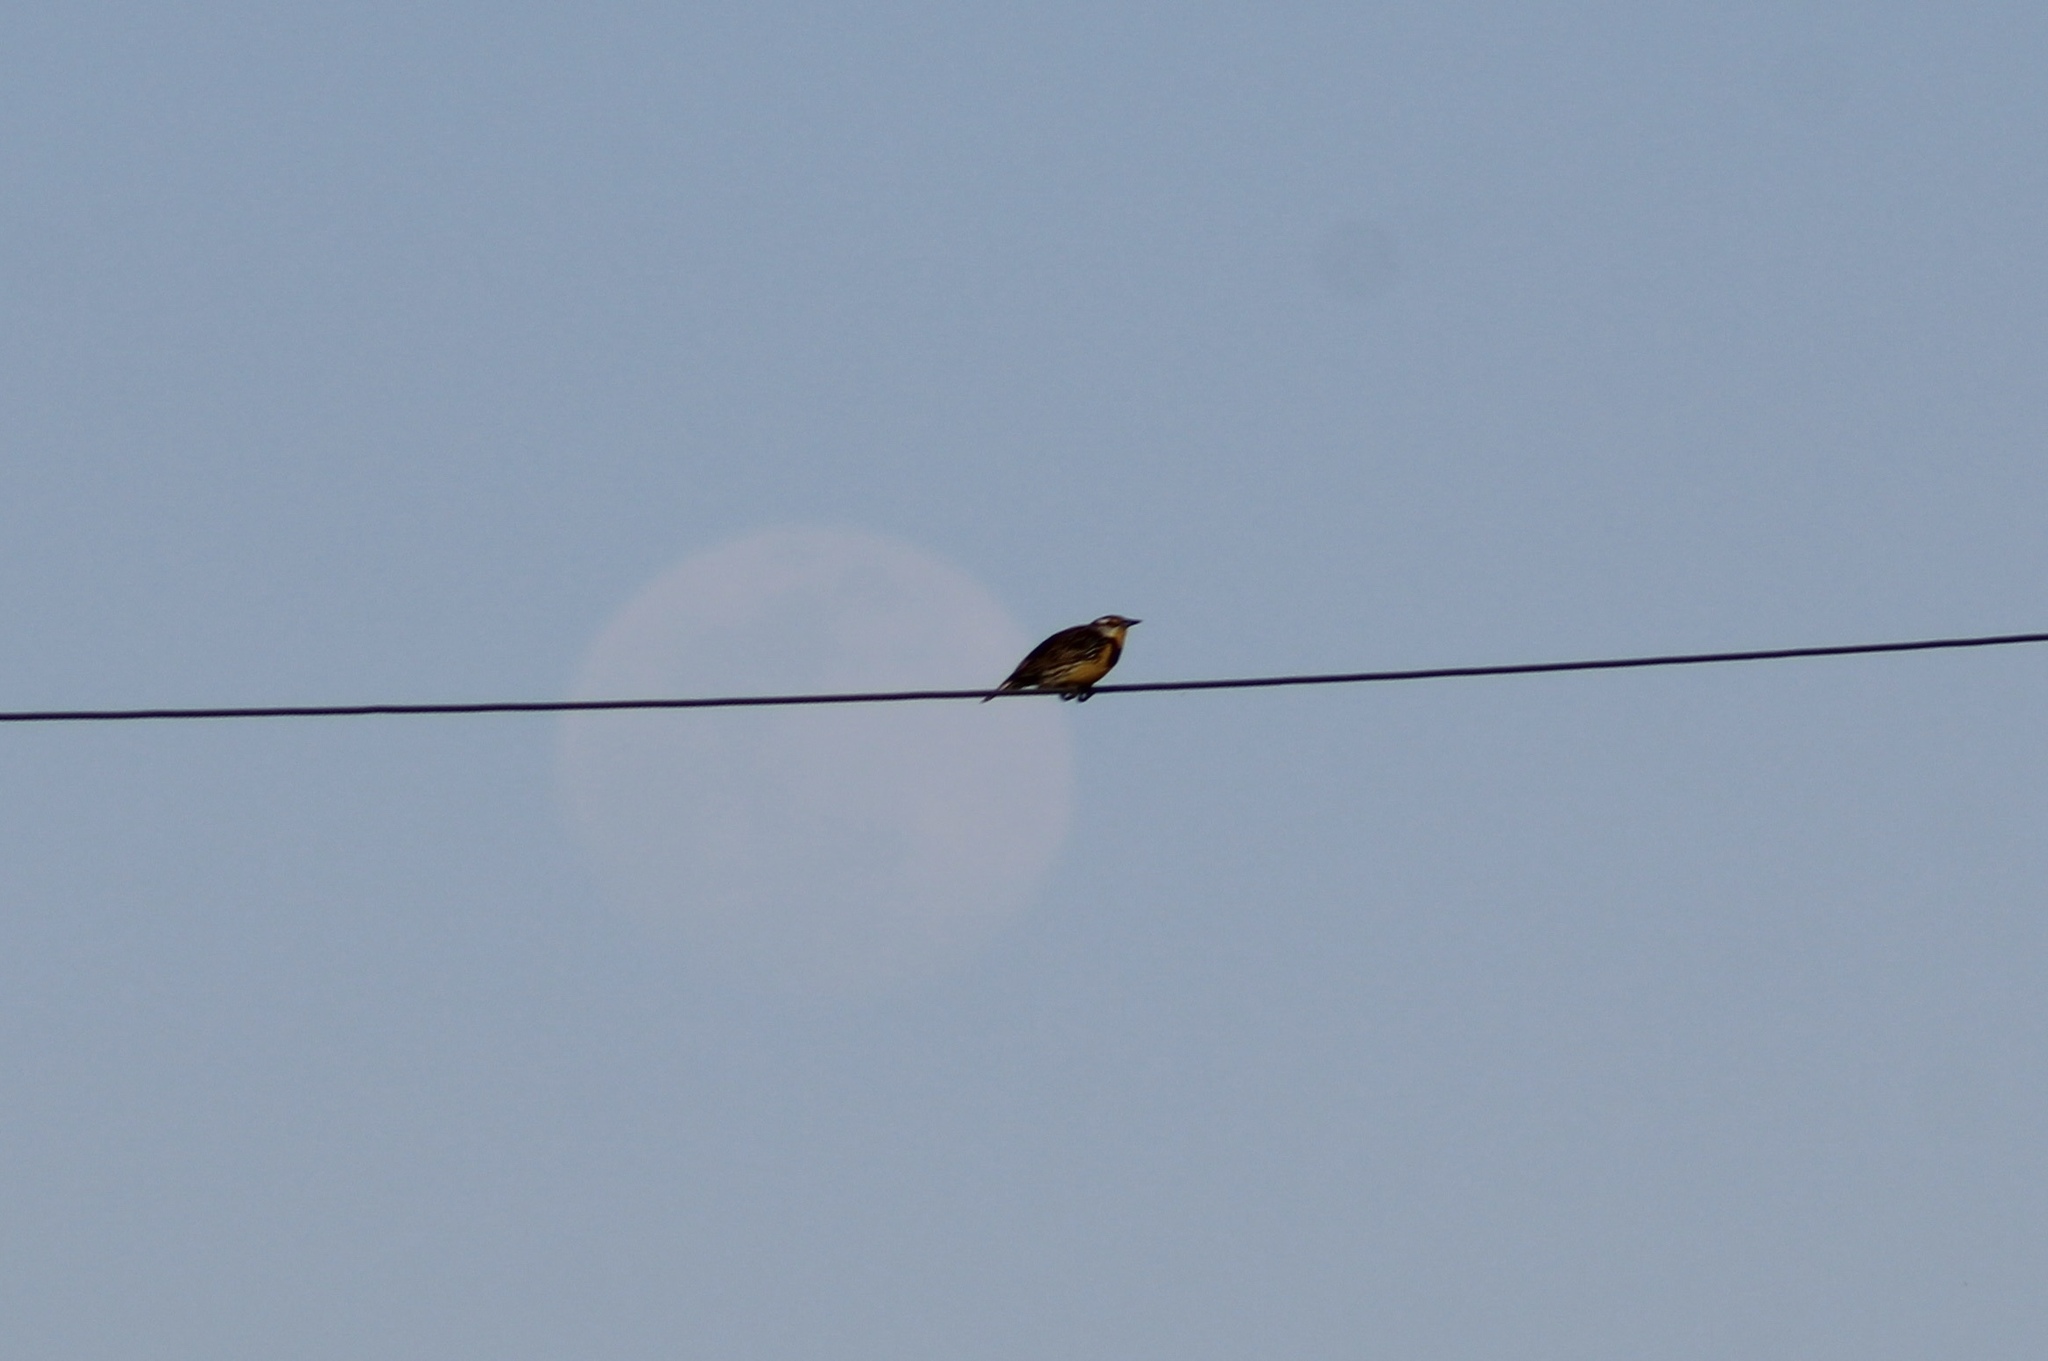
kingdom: Animalia
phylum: Chordata
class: Aves
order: Passeriformes
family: Icteridae
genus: Sturnella
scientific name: Sturnella magna
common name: Eastern meadowlark
